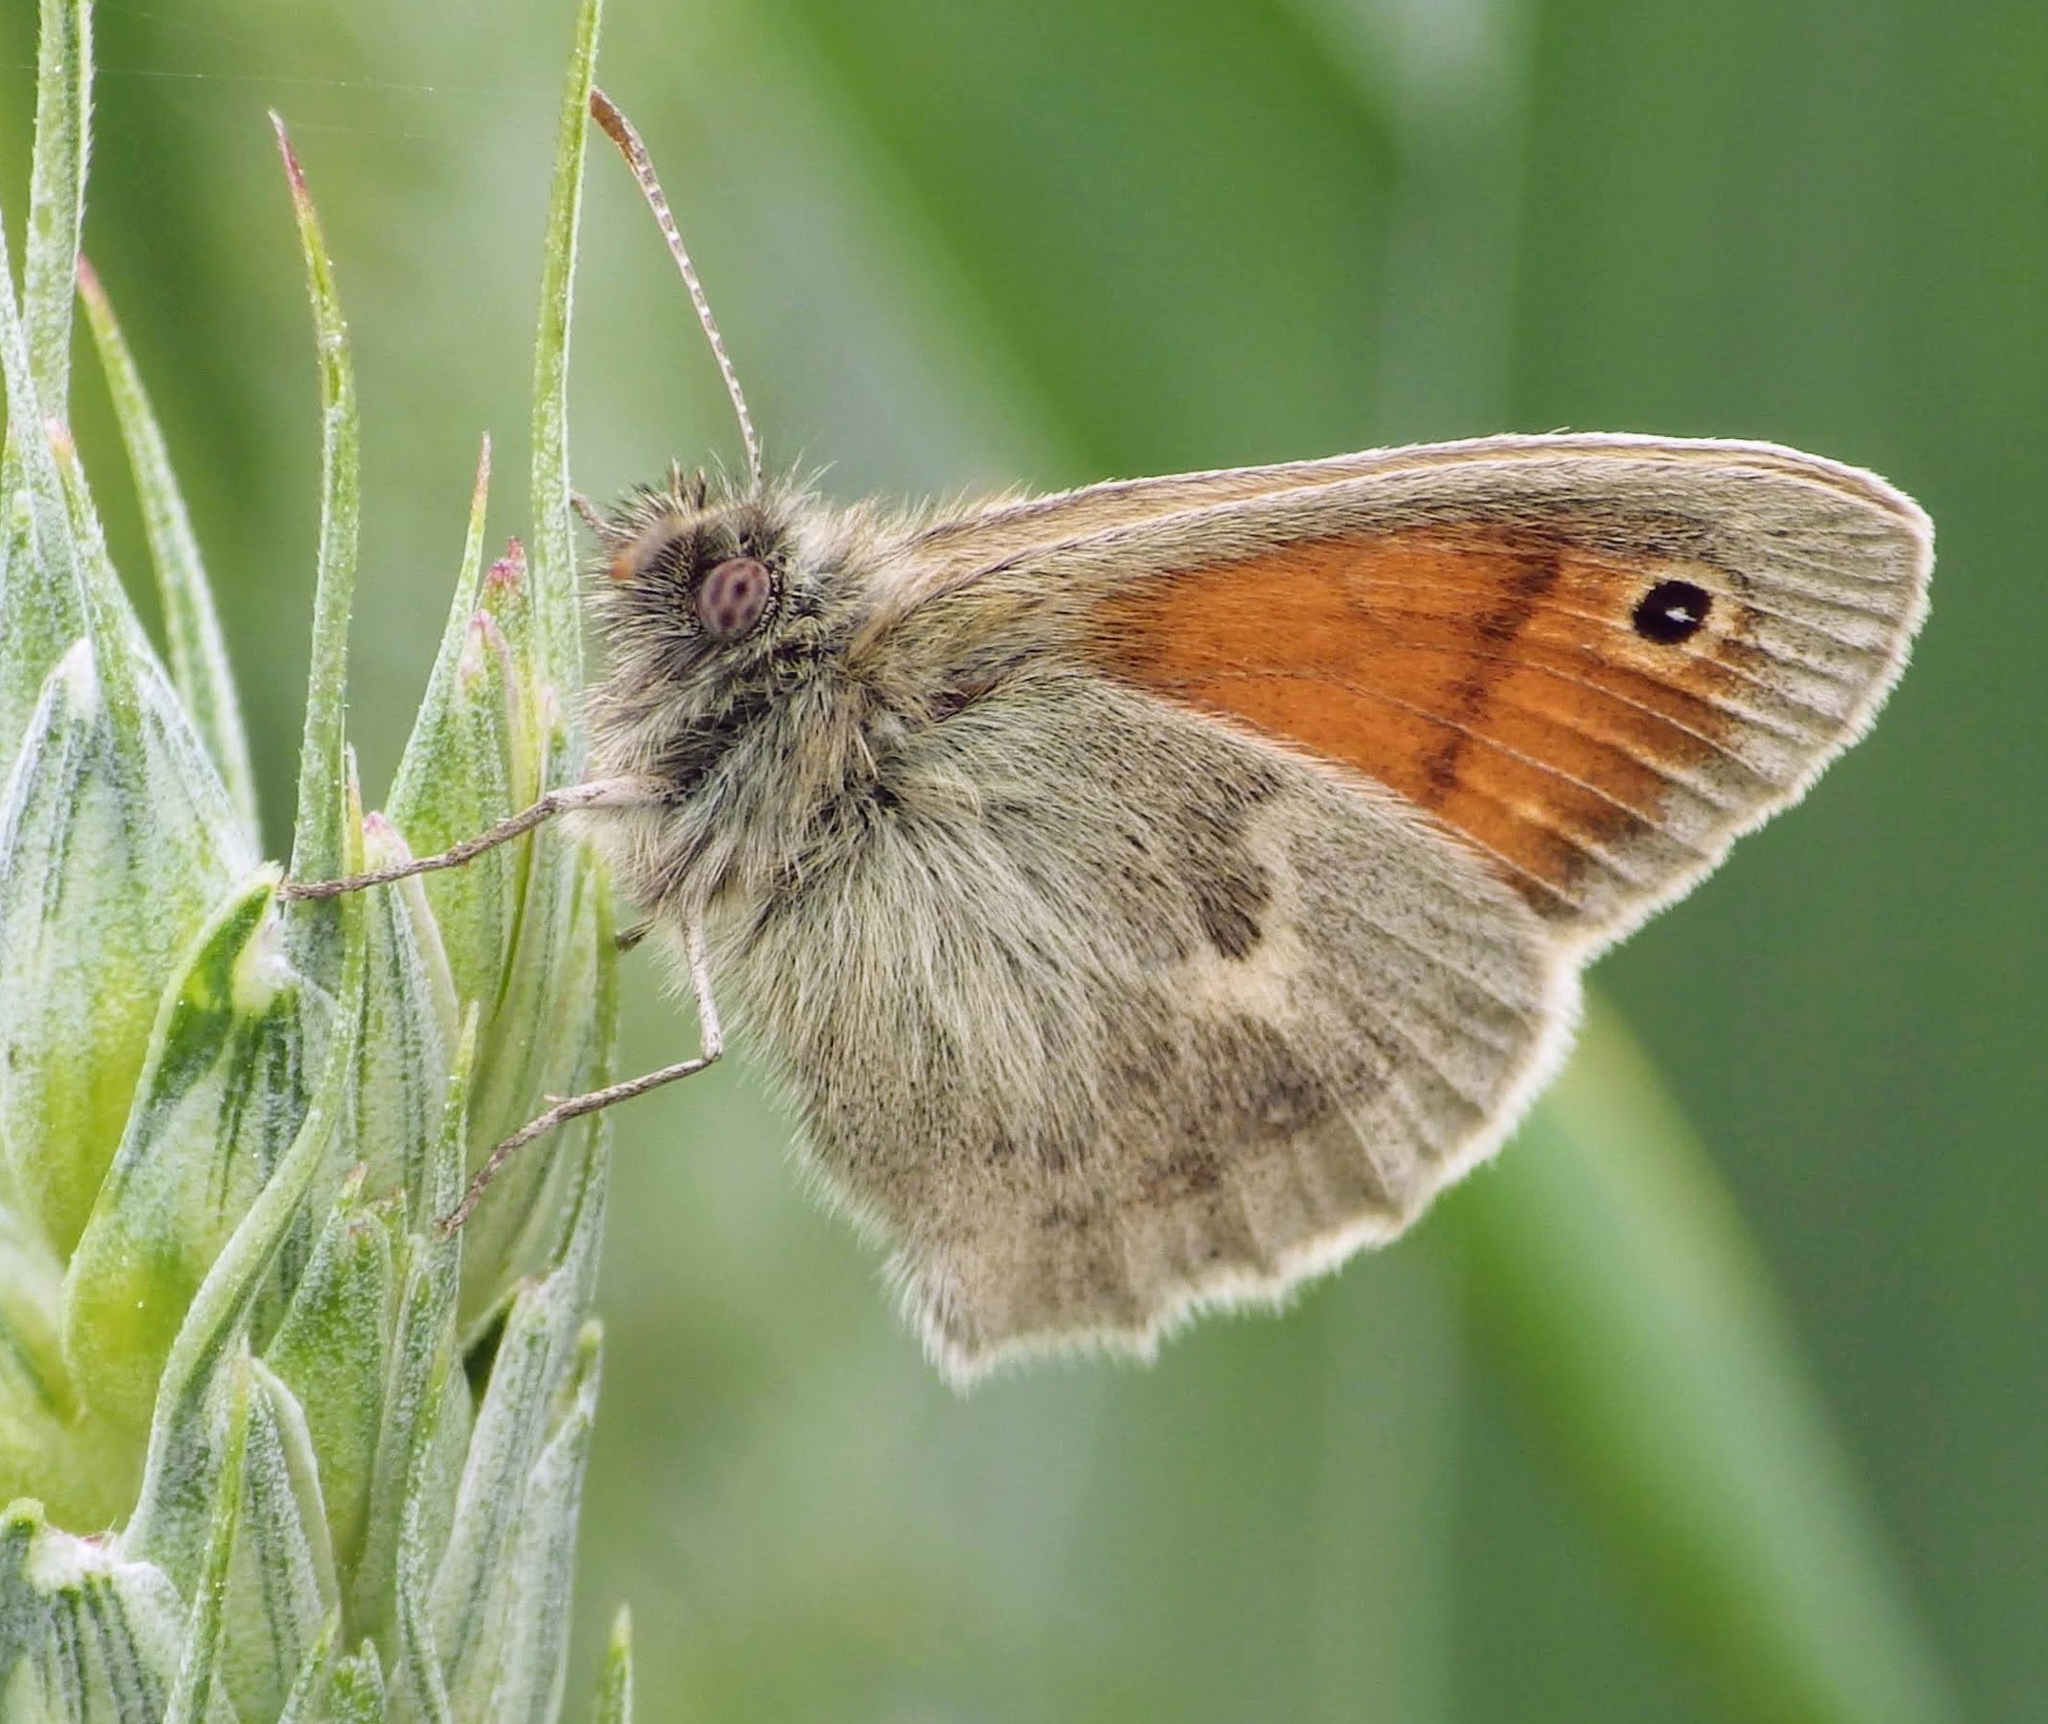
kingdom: Animalia
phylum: Arthropoda
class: Insecta
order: Lepidoptera
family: Nymphalidae
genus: Coenonympha
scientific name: Coenonympha pamphilus
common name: Small heath
